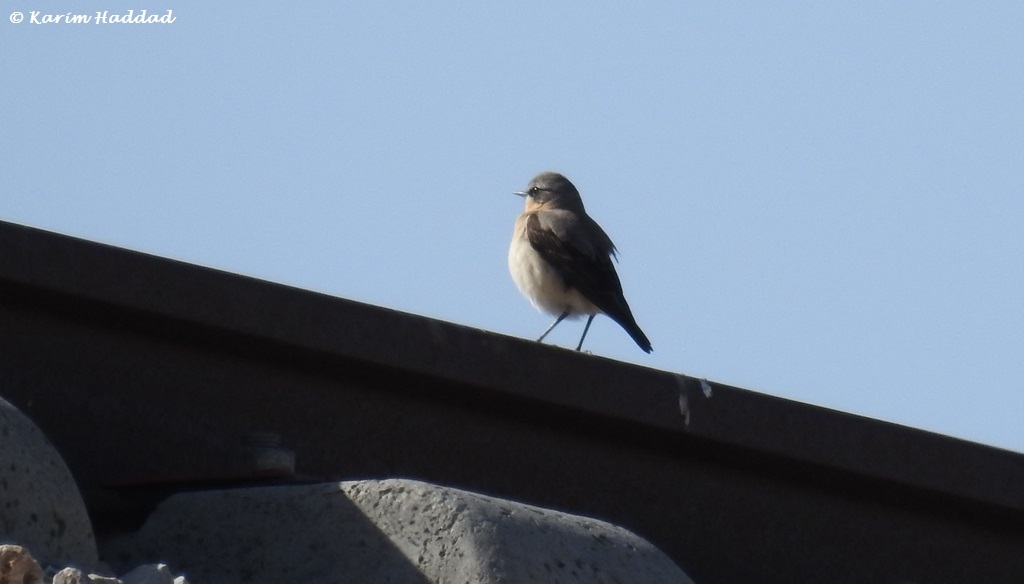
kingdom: Animalia
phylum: Chordata
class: Aves
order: Passeriformes
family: Muscicapidae
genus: Oenanthe
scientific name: Oenanthe oenanthe
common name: Northern wheatear
